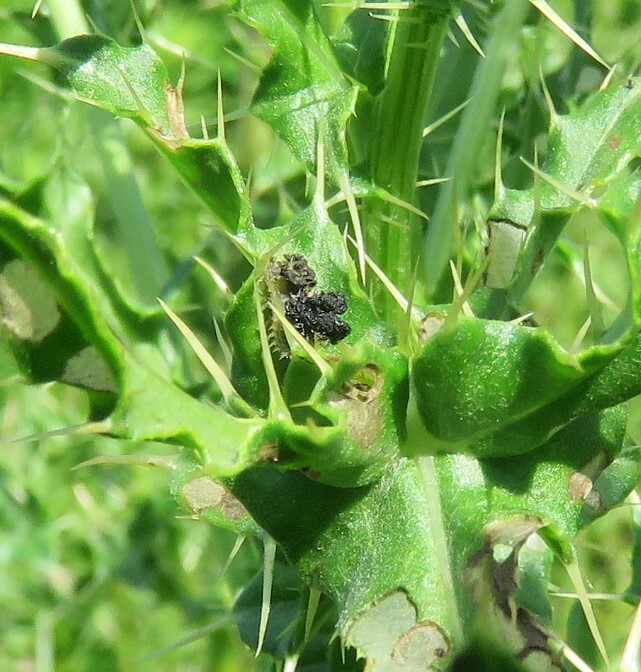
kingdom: Animalia
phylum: Arthropoda
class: Insecta
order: Coleoptera
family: Chrysomelidae
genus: Cassida
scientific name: Cassida rubiginosa
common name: Thistle tortoise beetle
